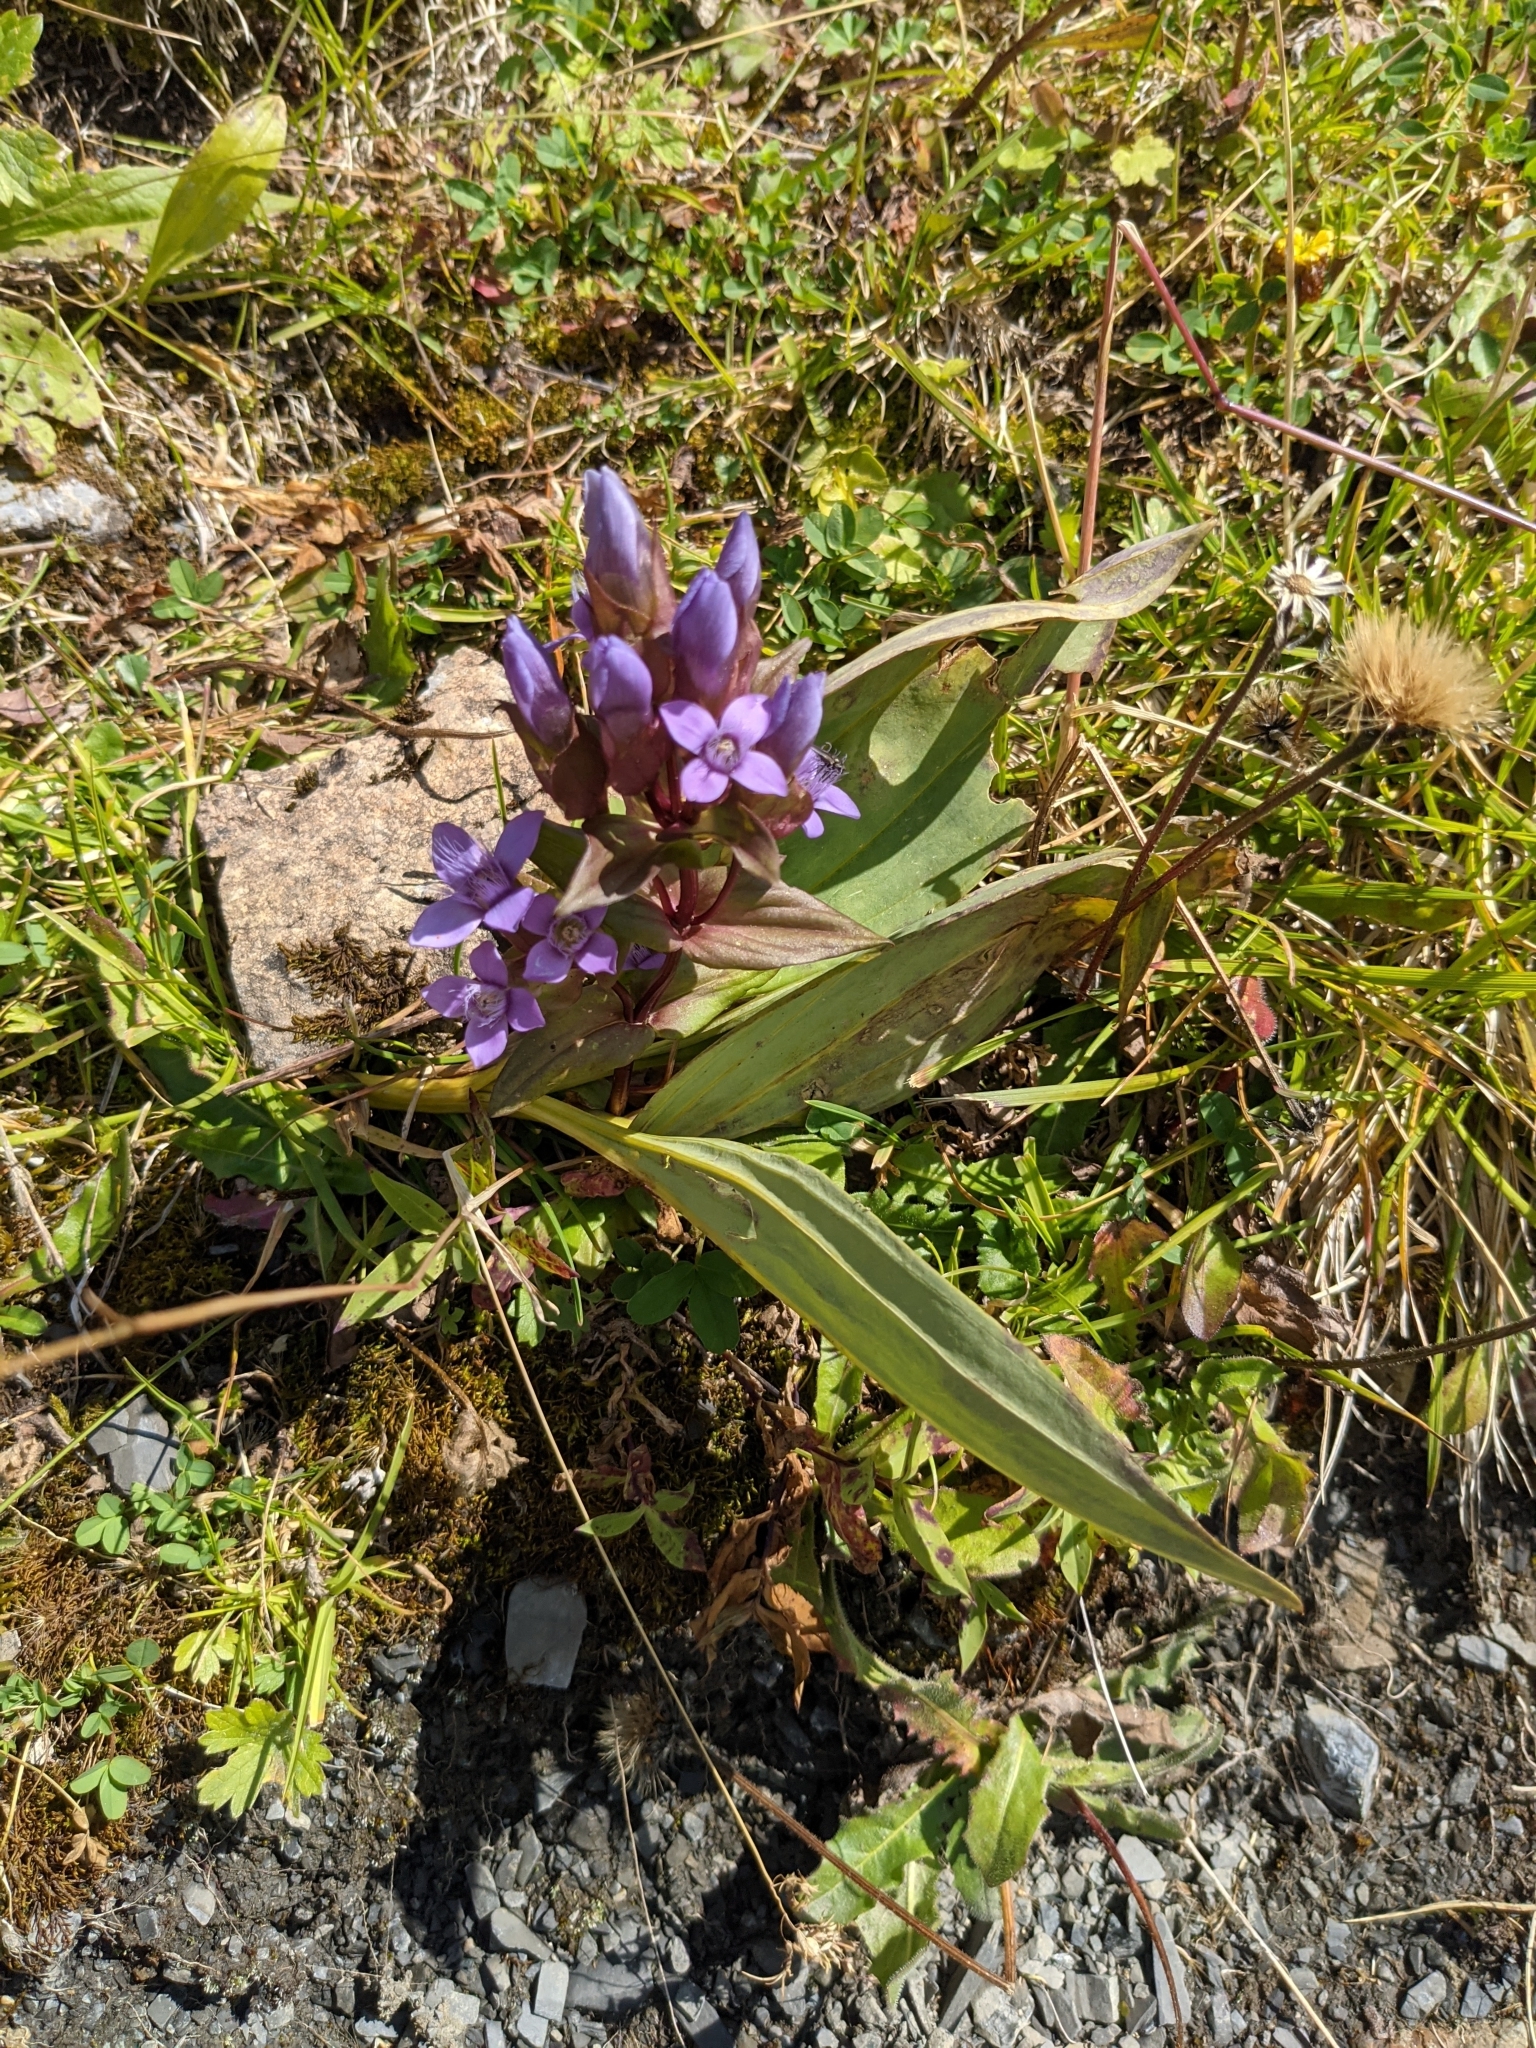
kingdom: Plantae
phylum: Tracheophyta
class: Magnoliopsida
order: Gentianales
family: Gentianaceae
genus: Gentianella
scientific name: Gentianella campestris
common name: Field gentian
